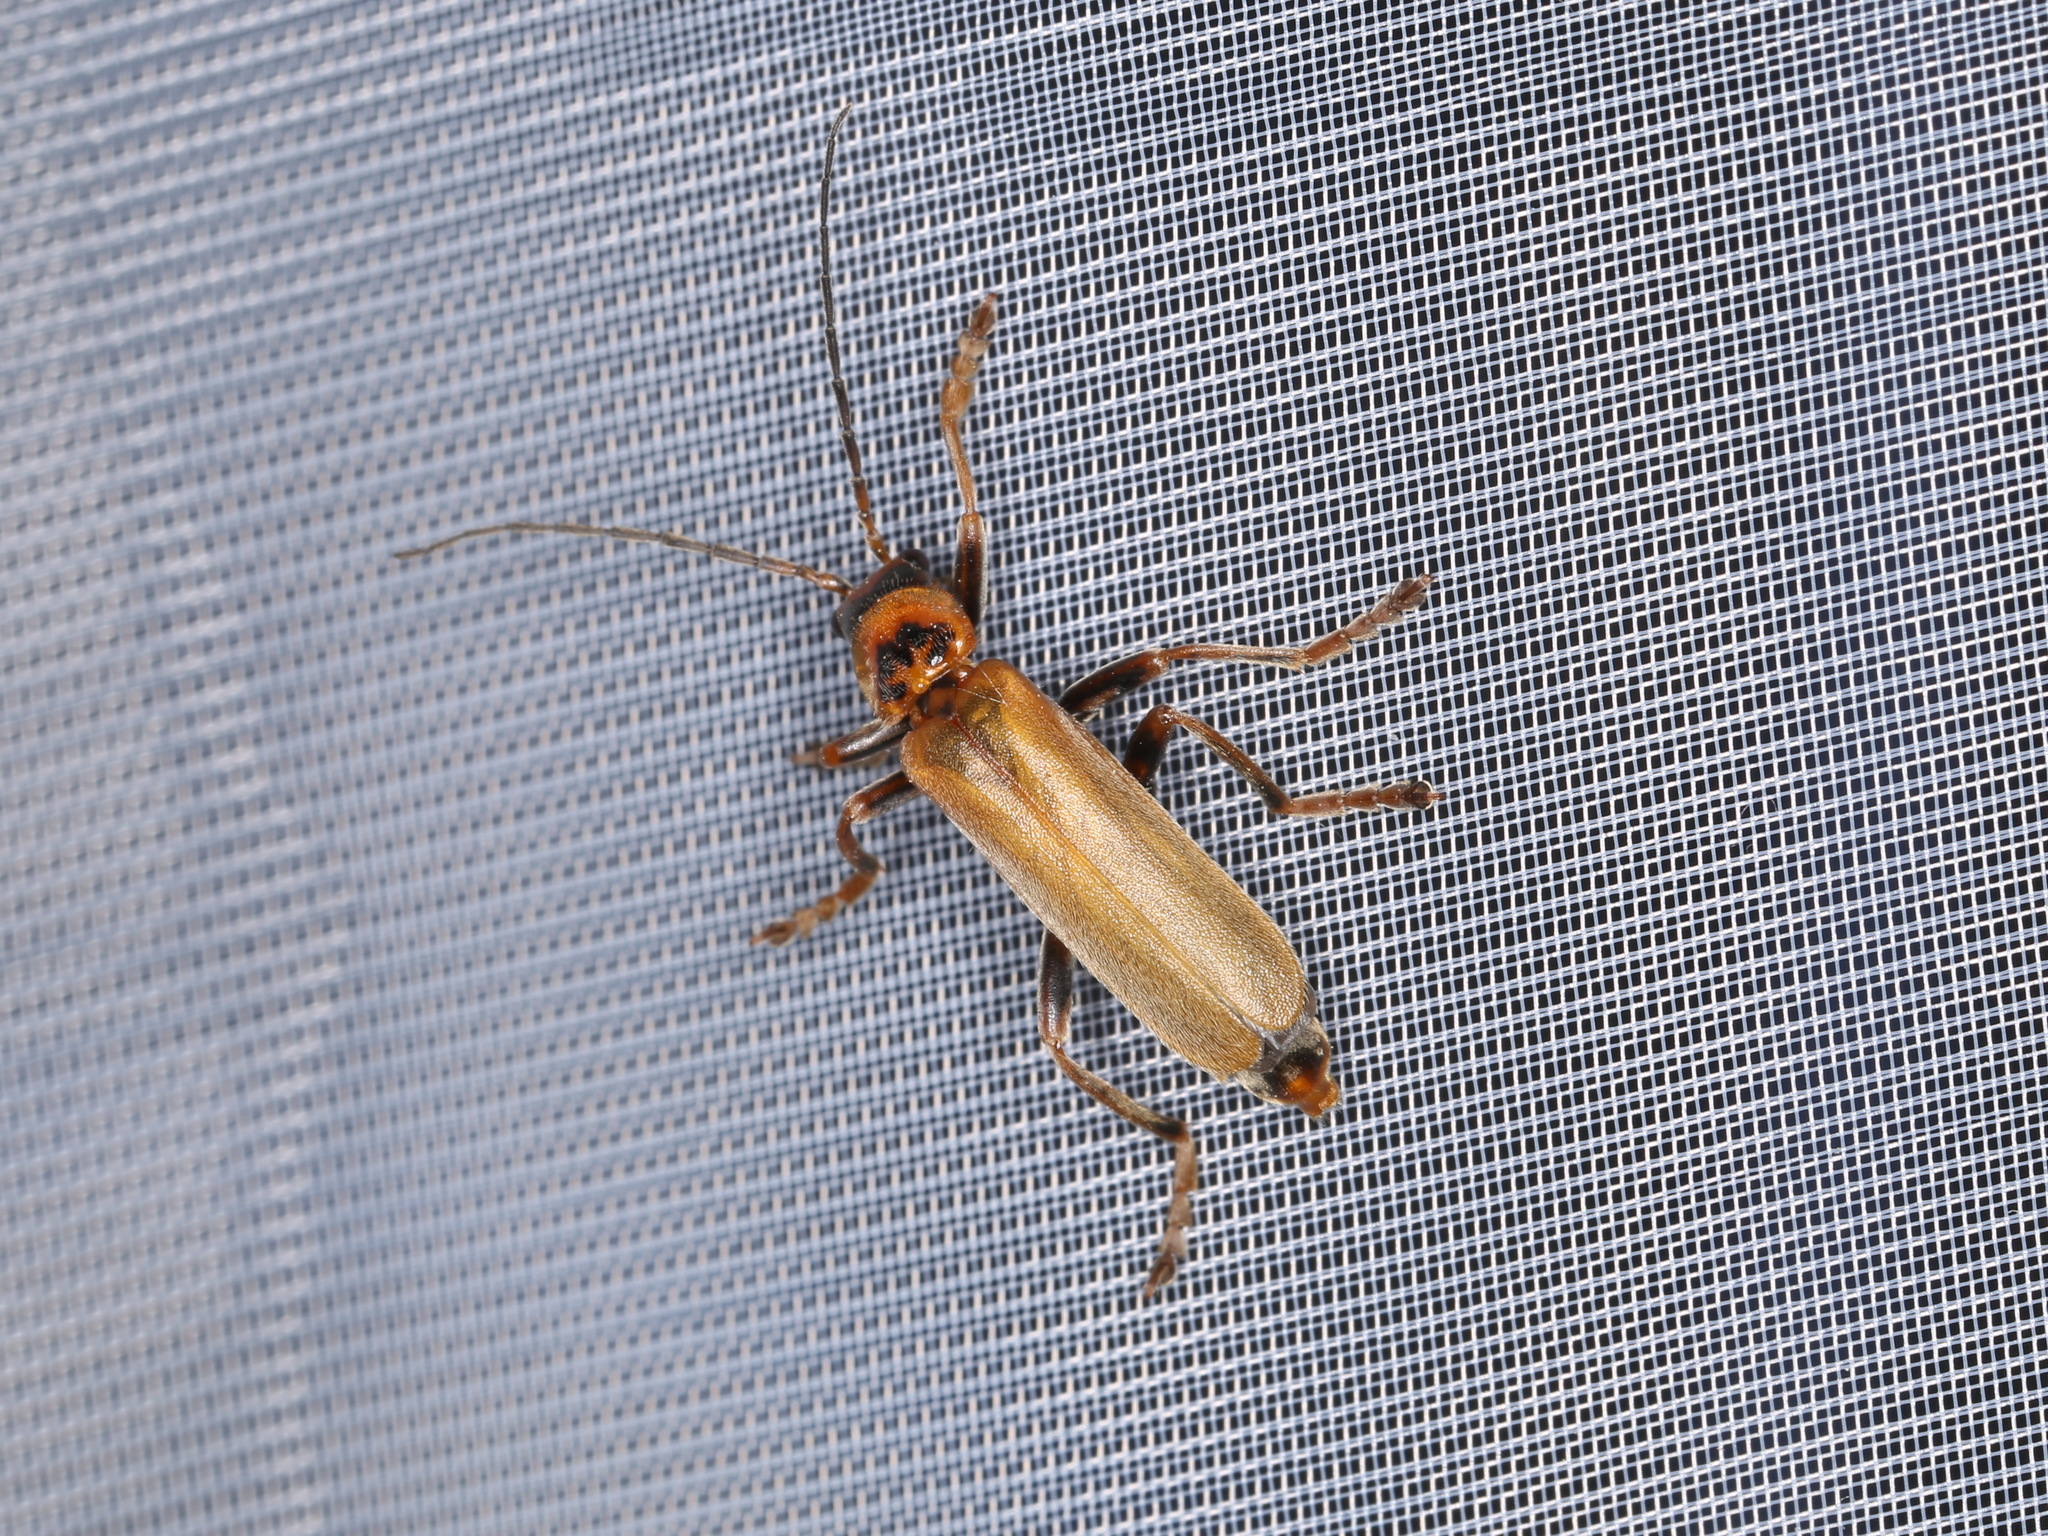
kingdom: Animalia
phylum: Arthropoda
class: Insecta
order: Coleoptera
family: Cantharidae
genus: Cantharis
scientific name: Cantharis figurata
